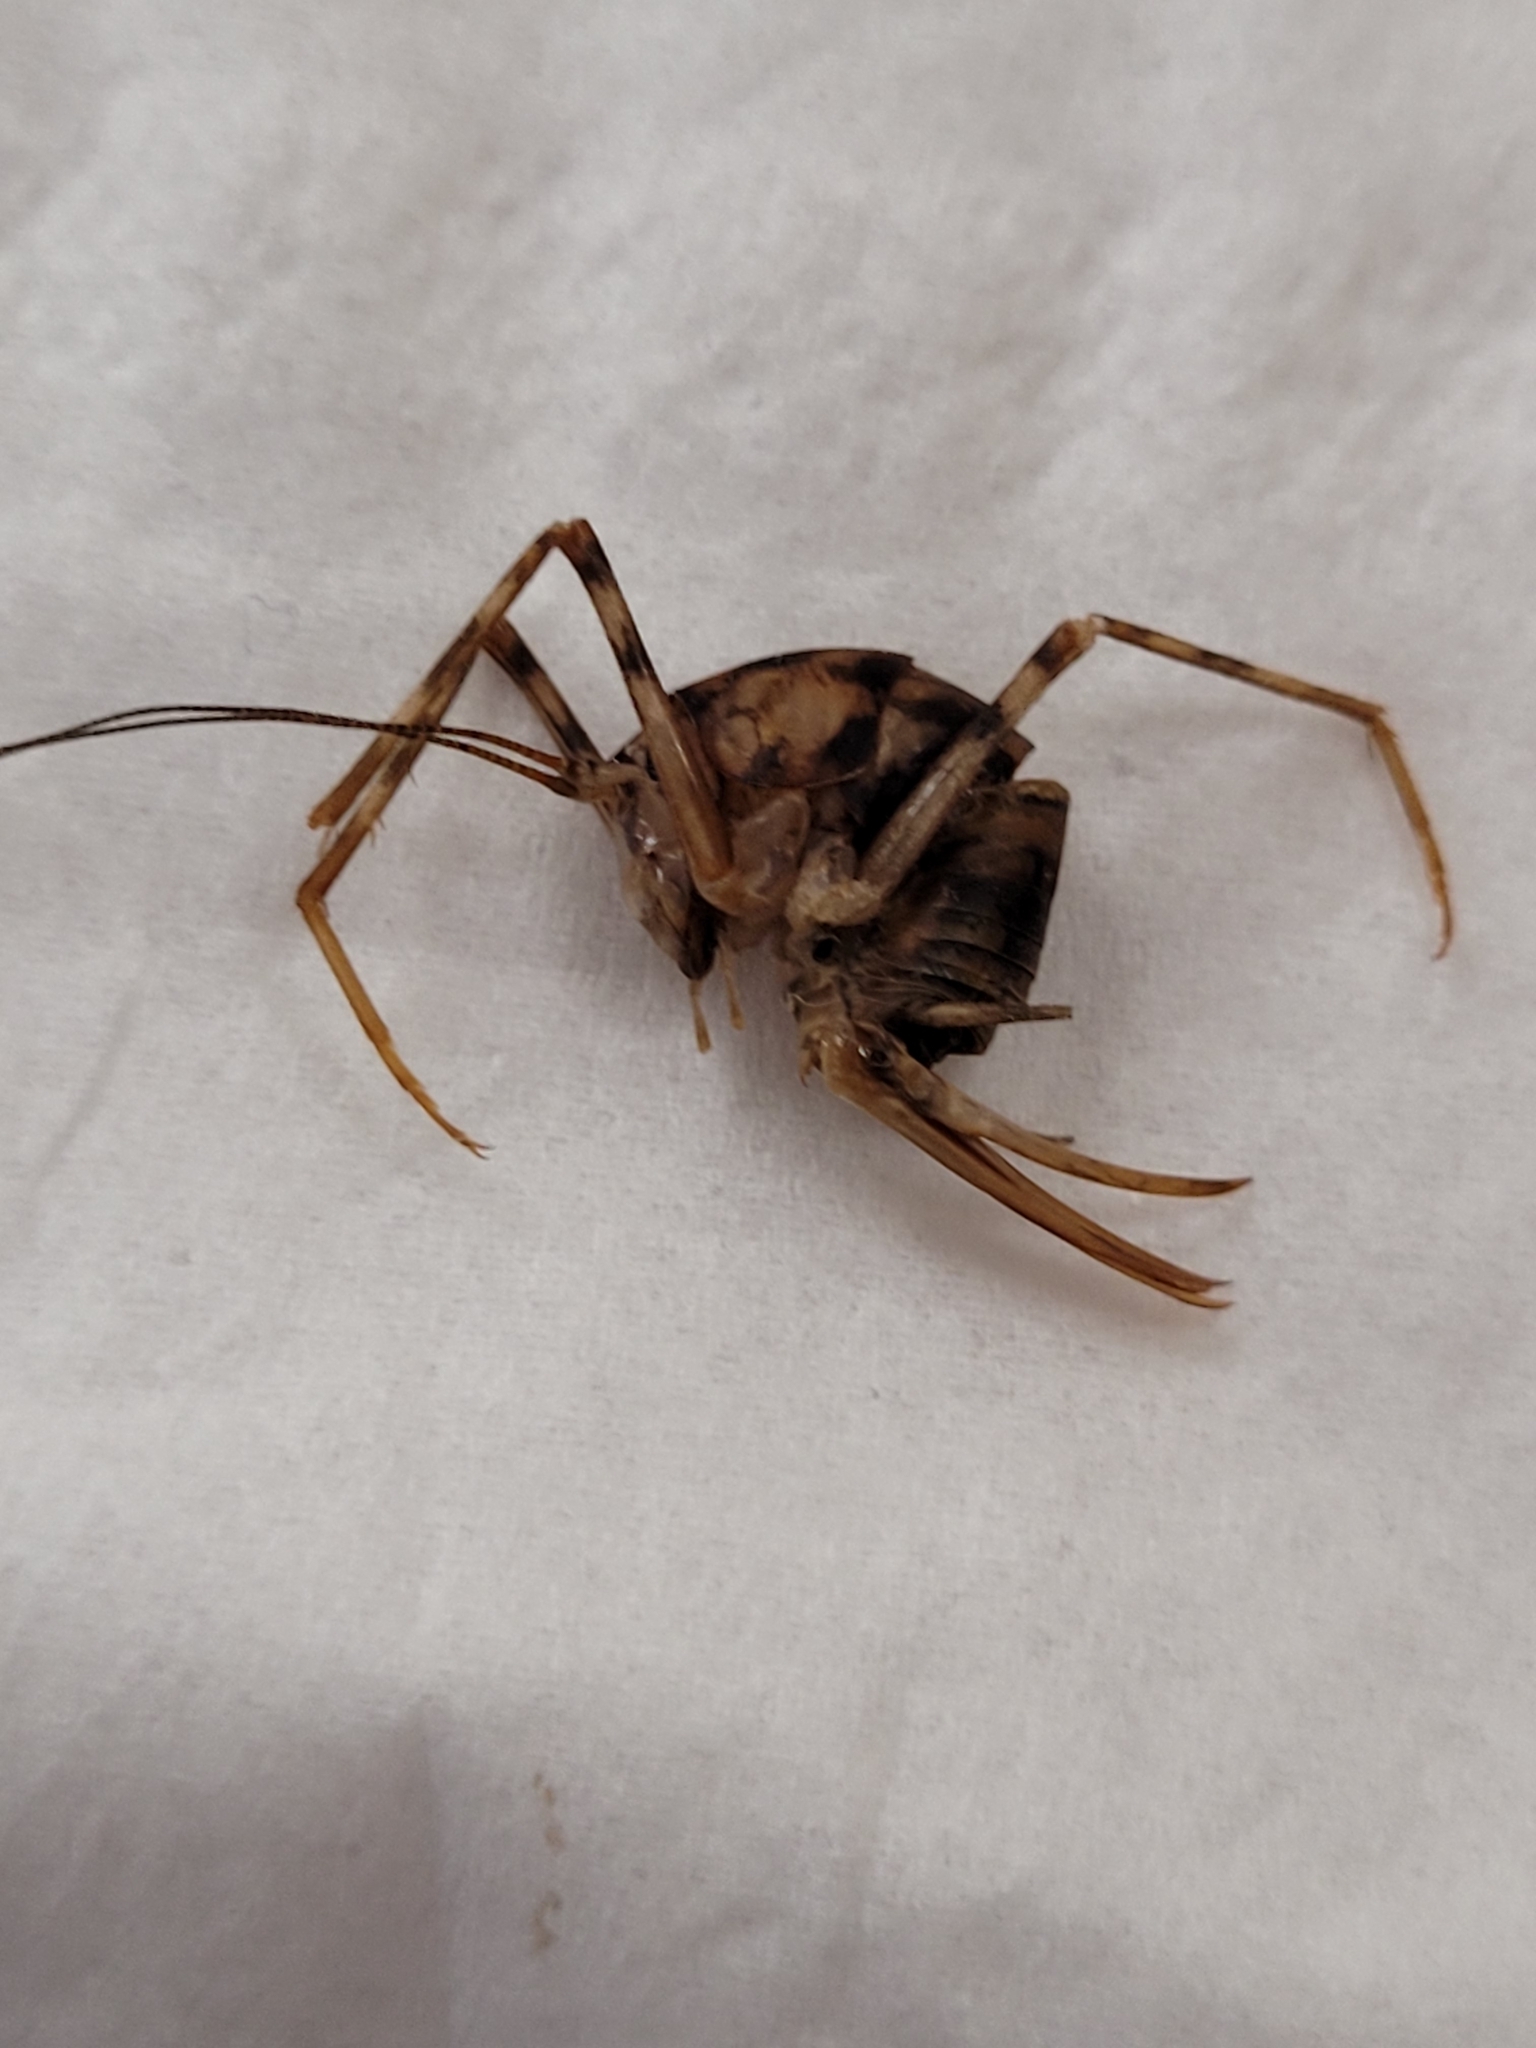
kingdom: Animalia
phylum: Arthropoda
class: Insecta
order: Orthoptera
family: Rhaphidophoridae
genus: Tachycines
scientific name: Tachycines asynamorus
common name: Greenhouse camel cricket
